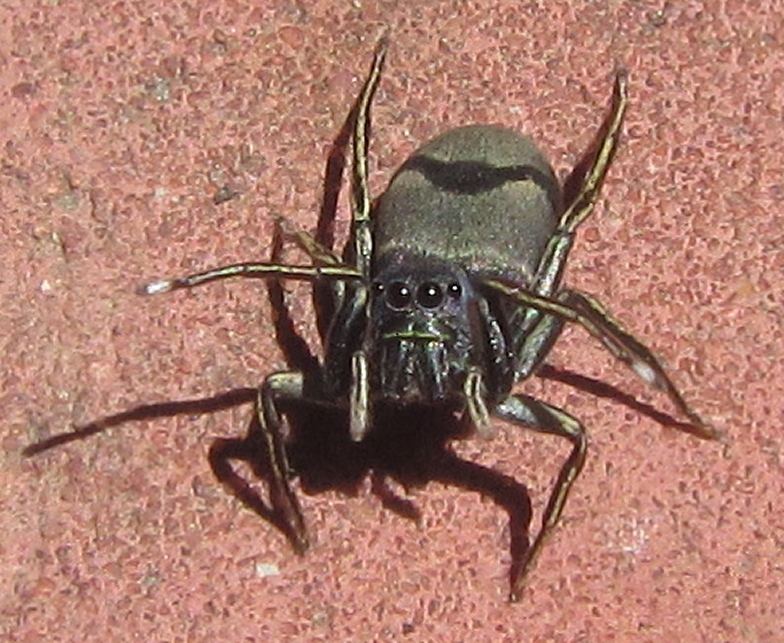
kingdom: Animalia
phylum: Arthropoda
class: Arachnida
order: Araneae
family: Salticidae
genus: Mexcala
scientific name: Mexcala elegans
